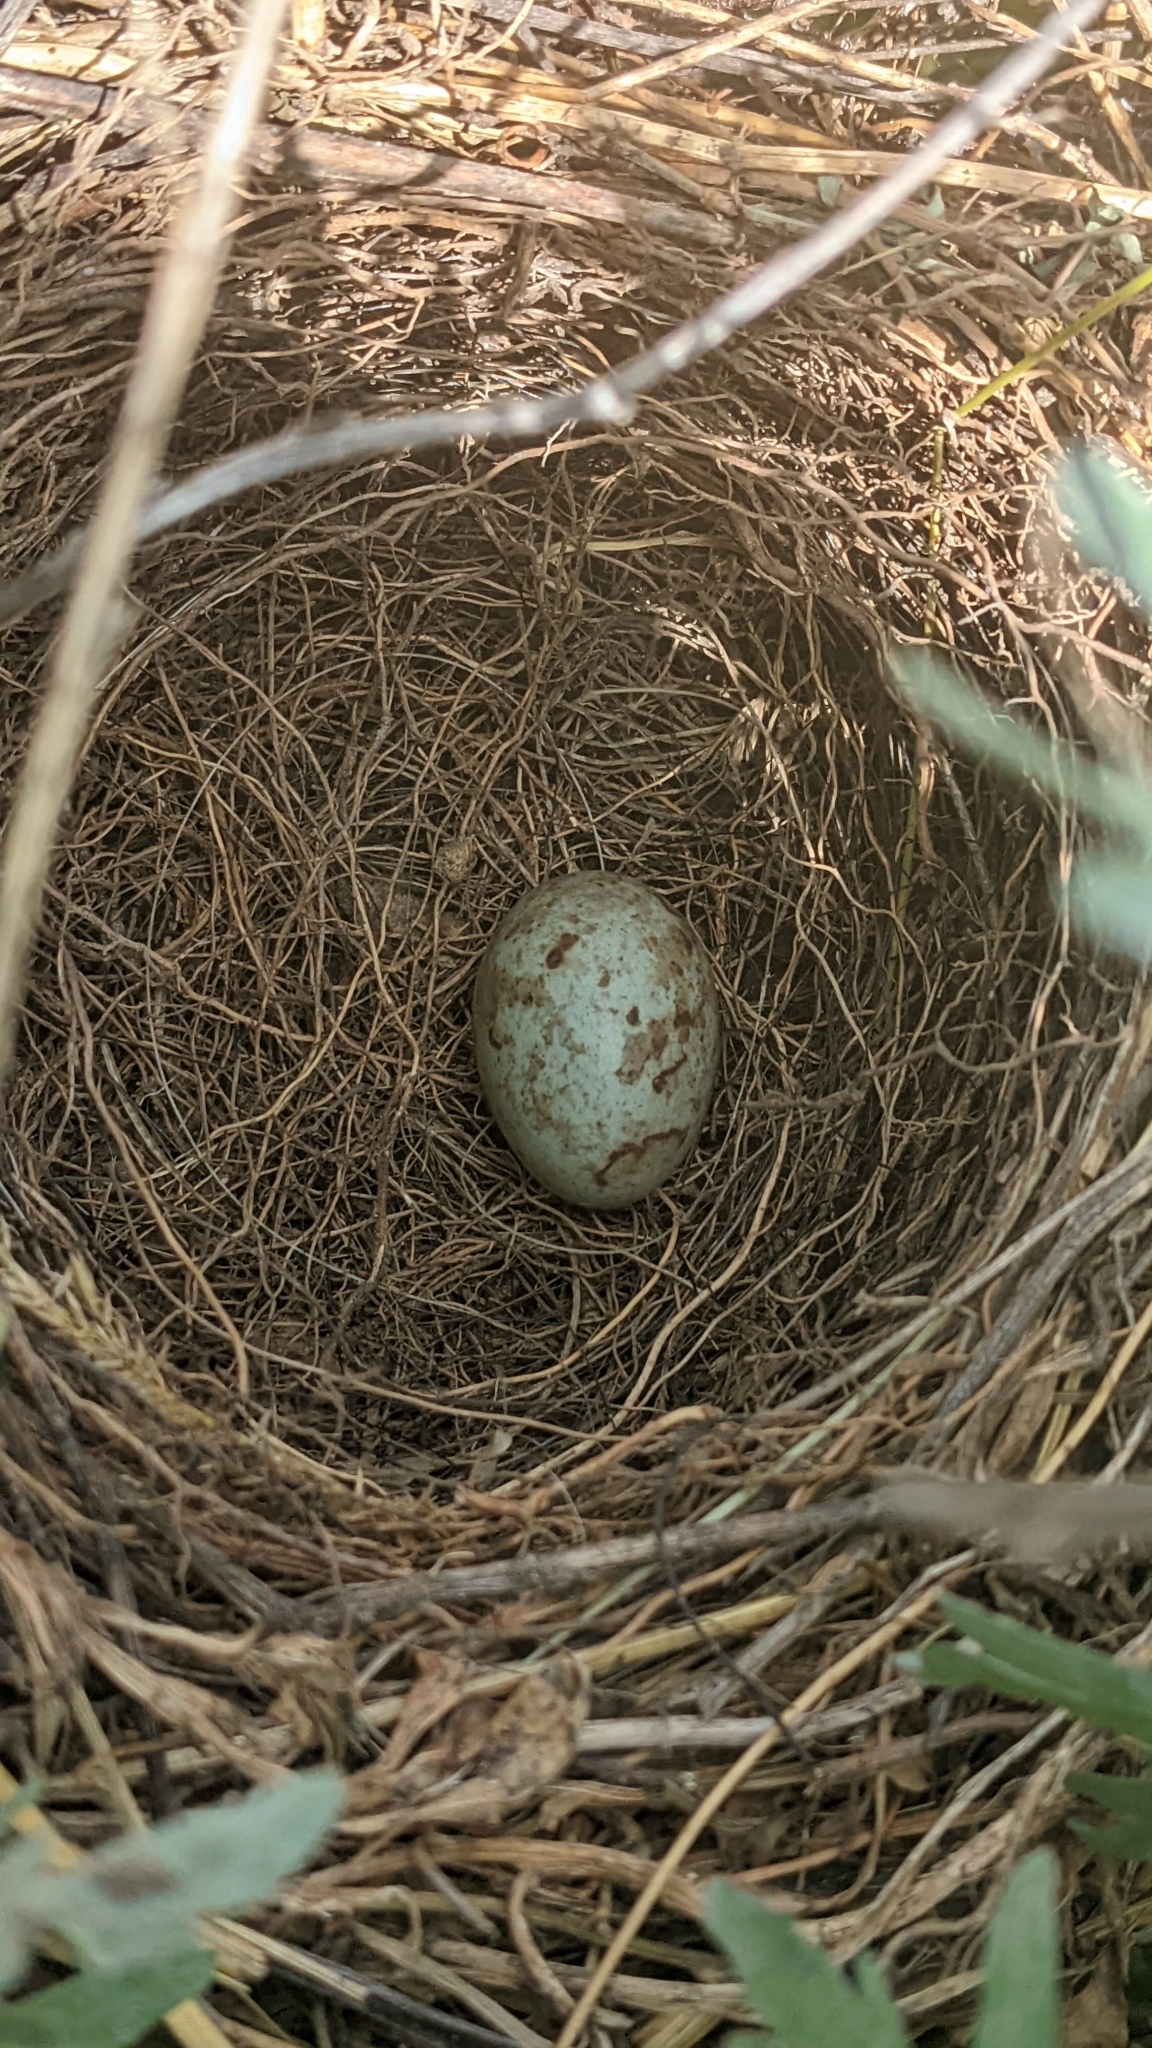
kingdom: Animalia
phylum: Chordata
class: Aves
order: Passeriformes
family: Icteridae
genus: Euphagus
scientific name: Euphagus cyanocephalus
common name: Brewer's blackbird
